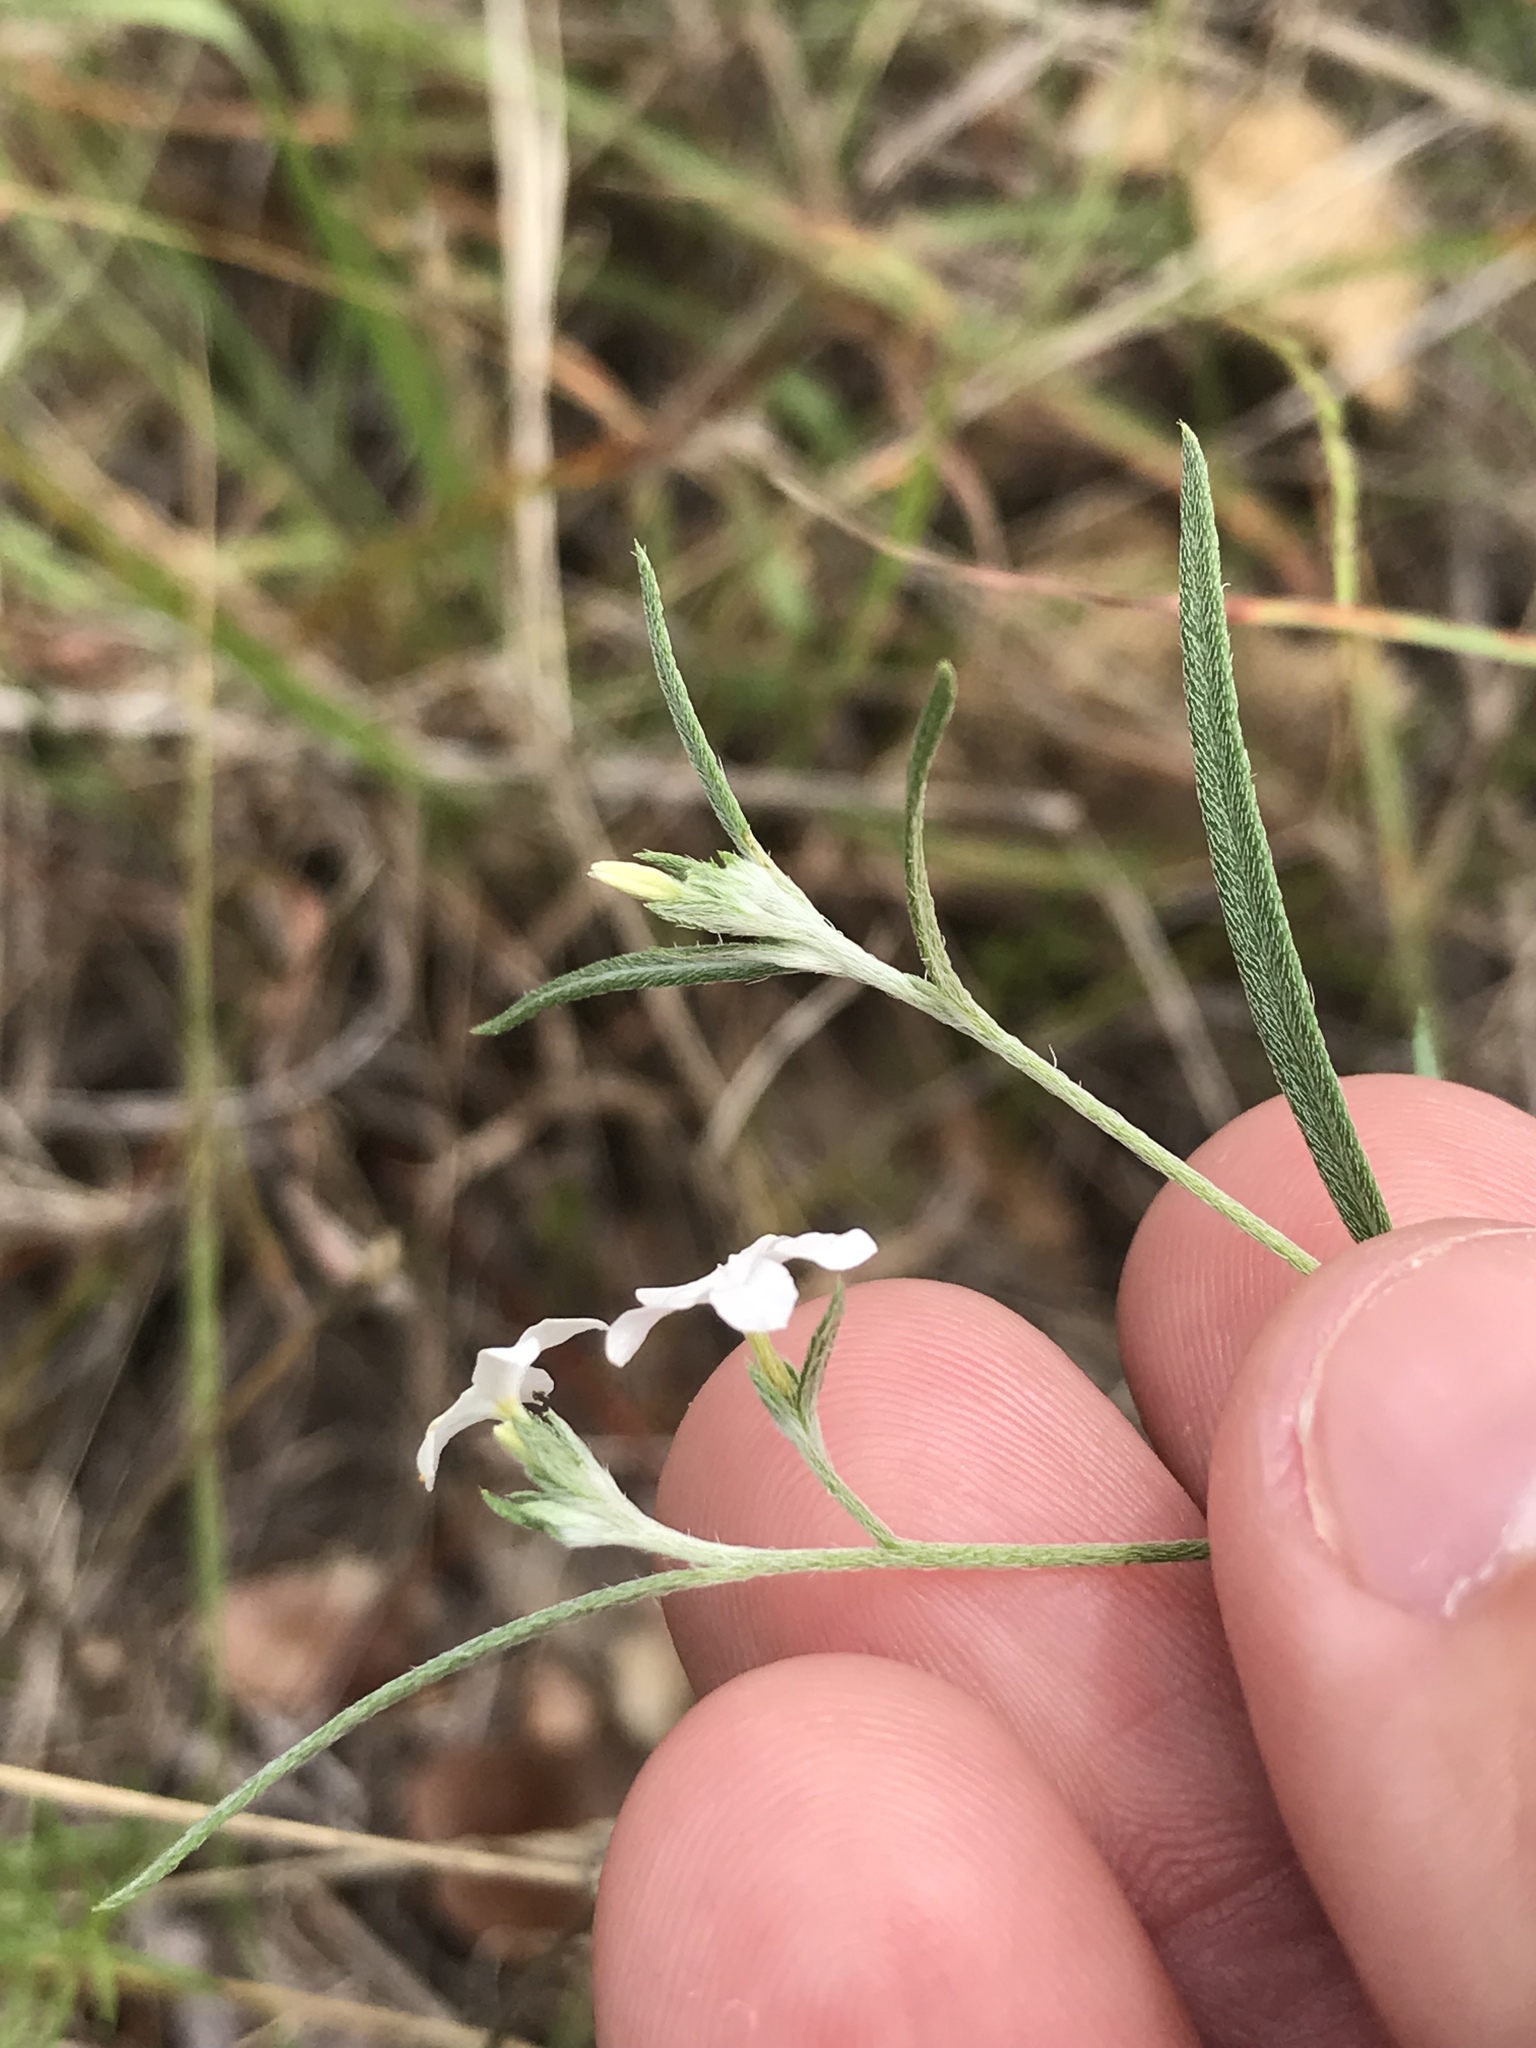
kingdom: Plantae
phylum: Tracheophyta
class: Magnoliopsida
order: Boraginales
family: Heliotropiaceae
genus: Euploca
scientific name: Euploca tenella
